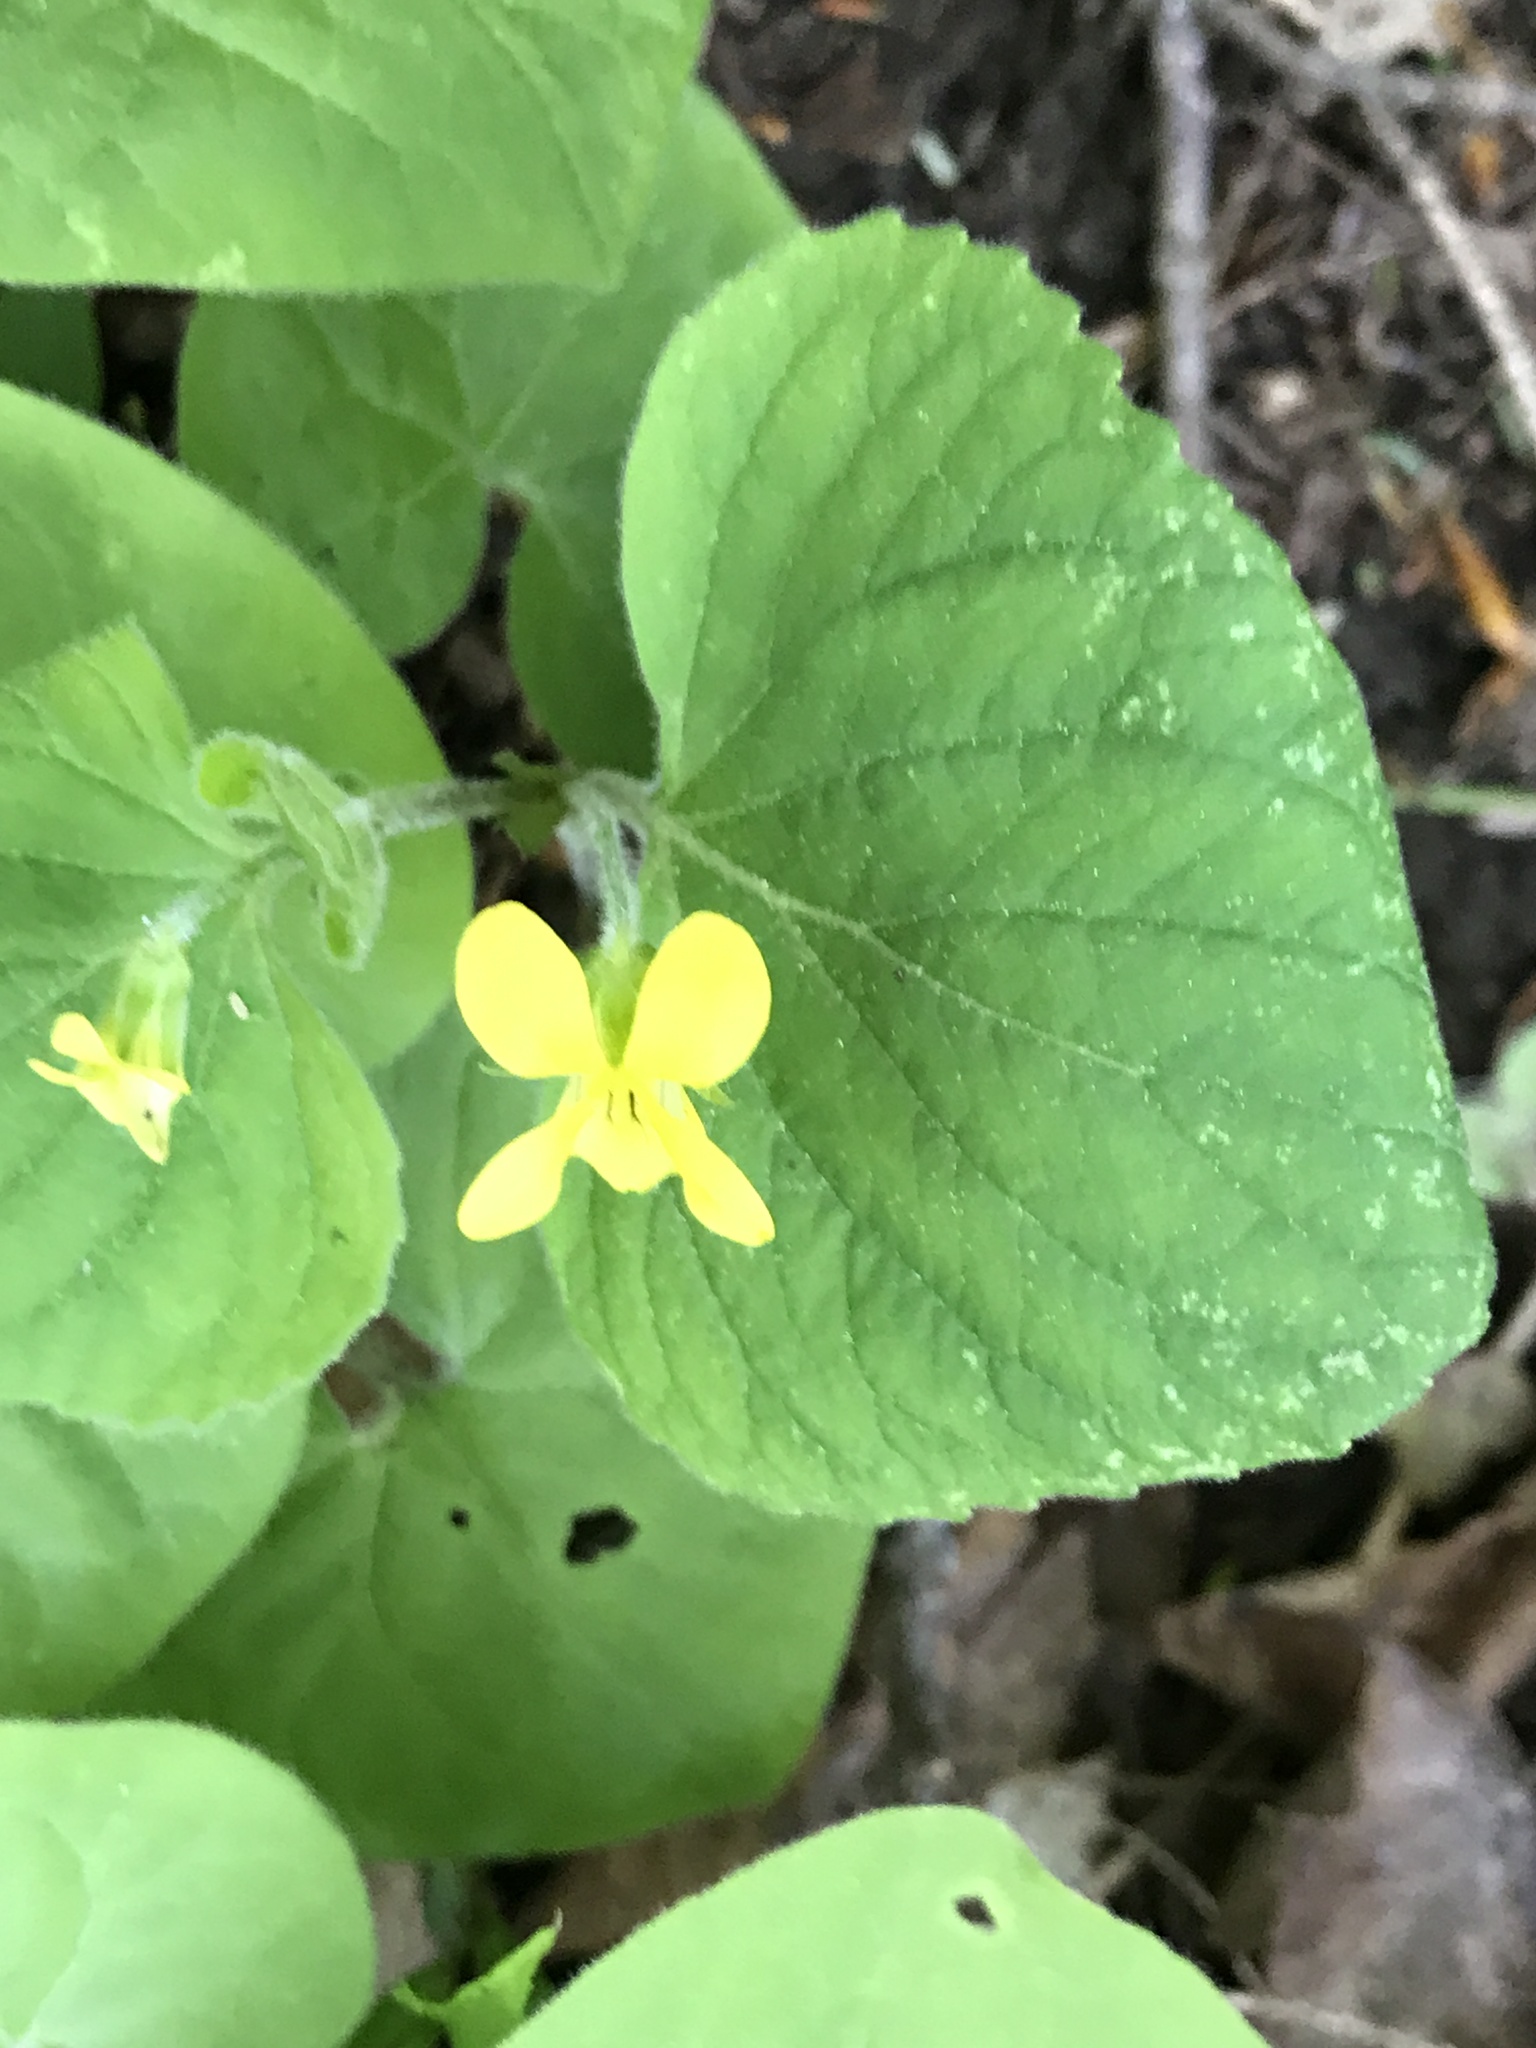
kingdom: Plantae
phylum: Tracheophyta
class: Magnoliopsida
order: Malpighiales
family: Violaceae
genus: Viola
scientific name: Viola pubescens
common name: Yellow forest violet
